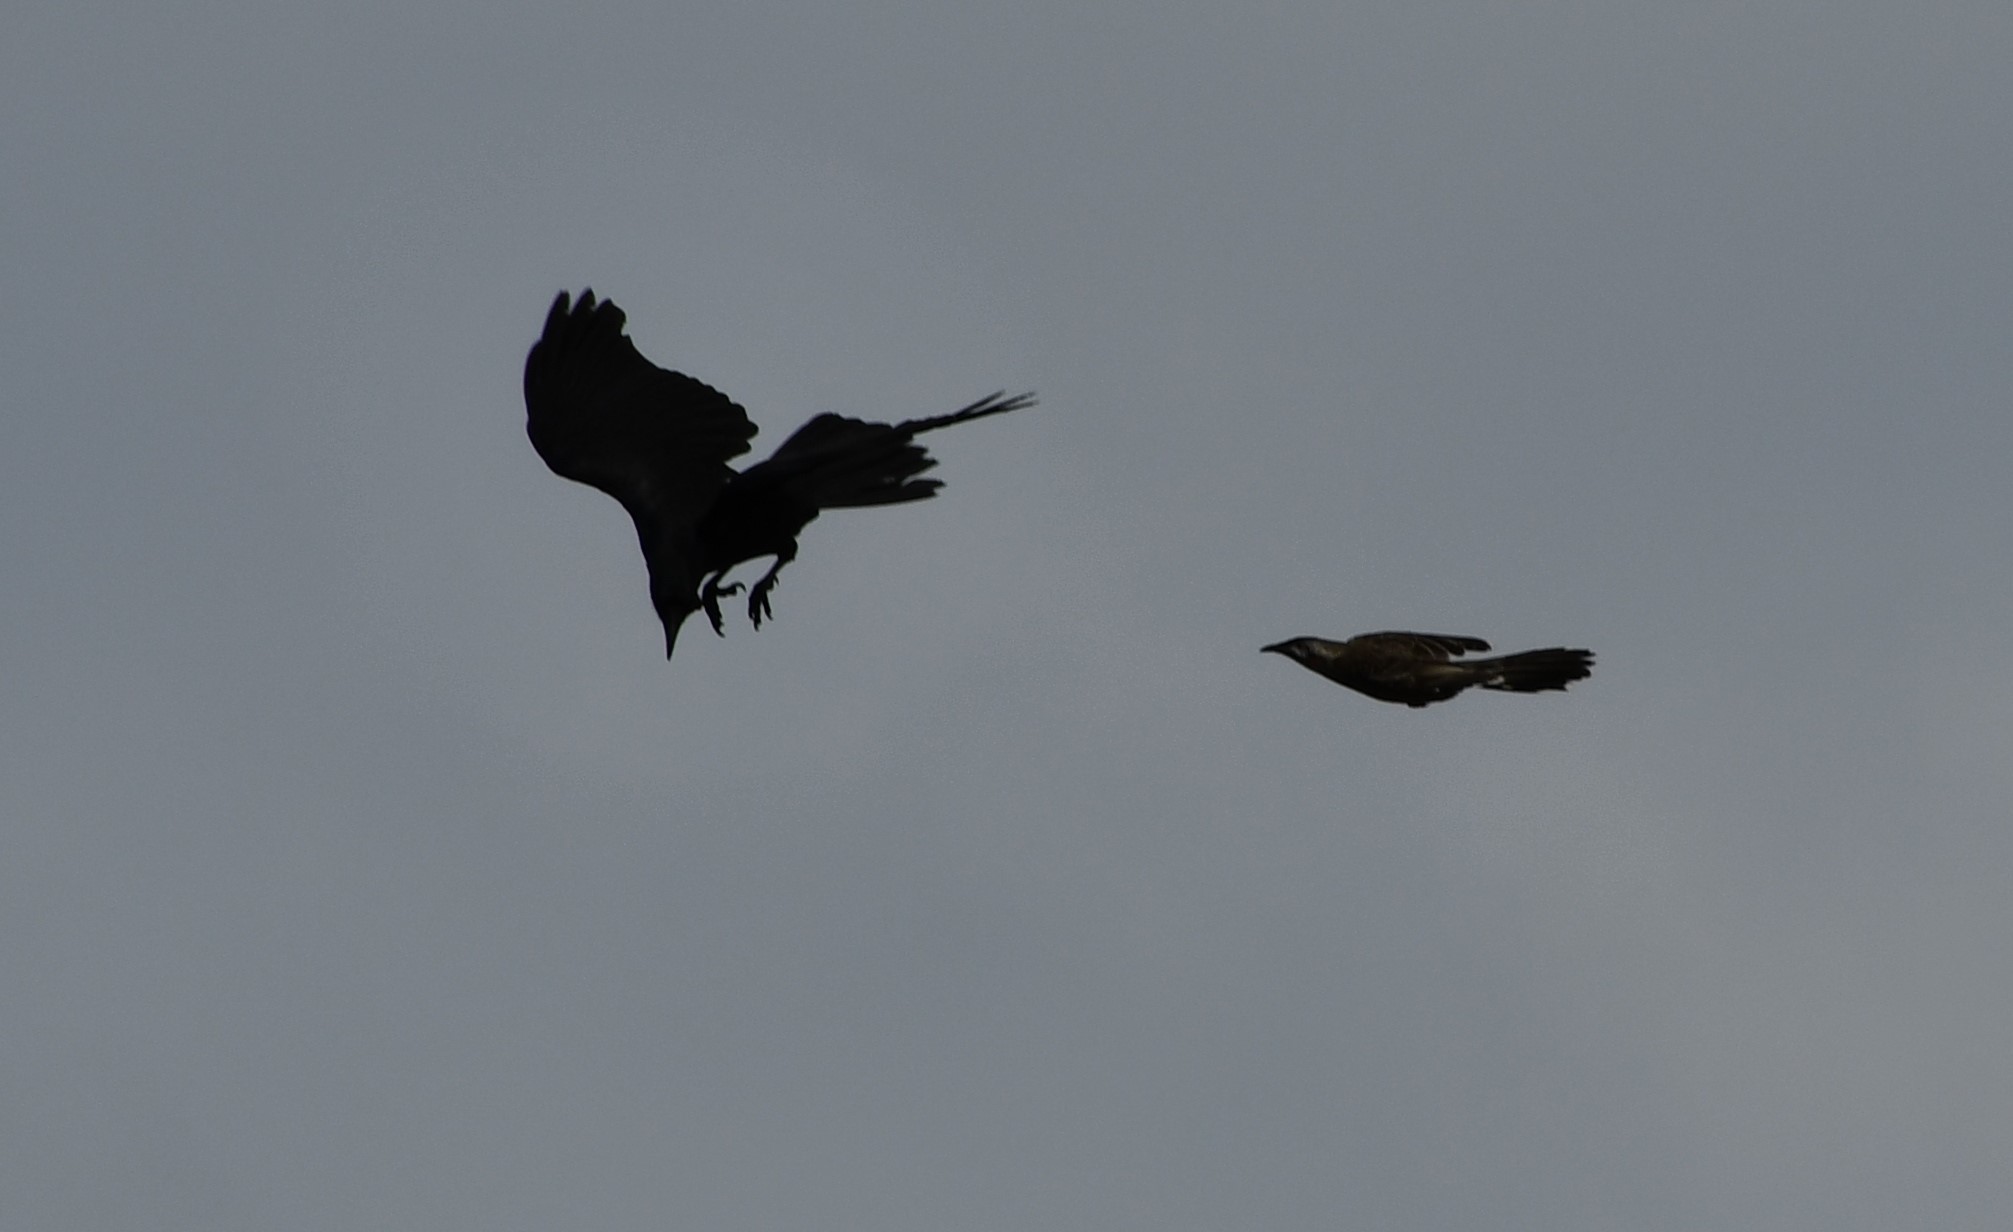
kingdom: Animalia
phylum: Chordata
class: Aves
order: Passeriformes
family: Meliphagidae
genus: Anthochaera
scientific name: Anthochaera chrysoptera
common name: Little wattlebird
